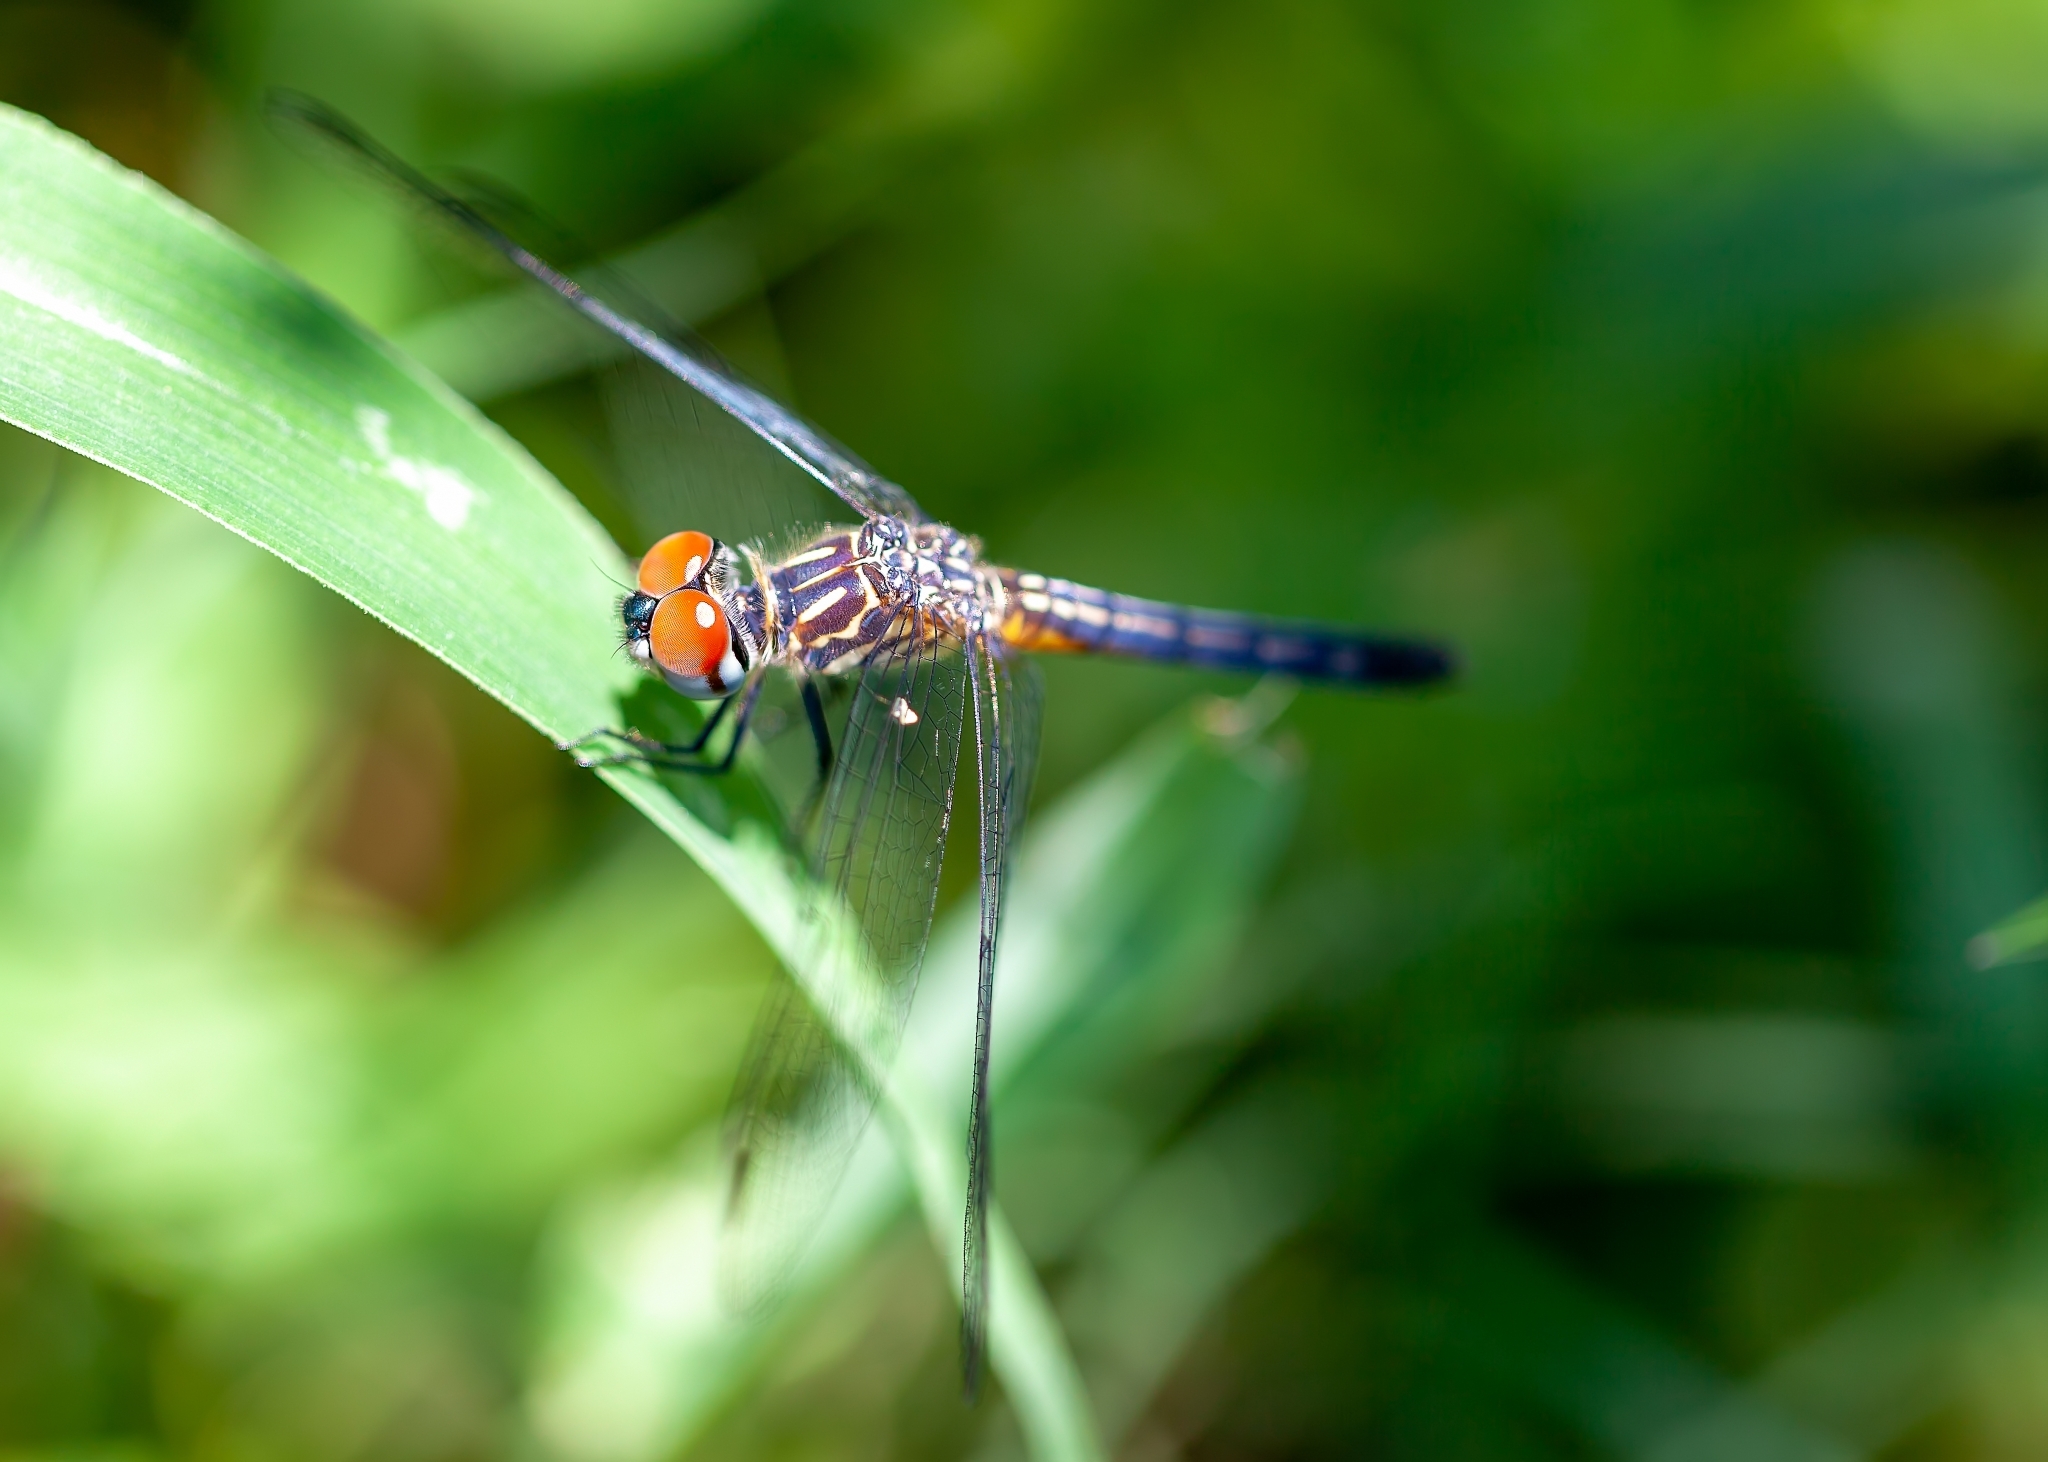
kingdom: Animalia
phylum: Arthropoda
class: Insecta
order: Odonata
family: Libellulidae
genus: Pachydiplax
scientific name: Pachydiplax longipennis
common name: Blue dasher
